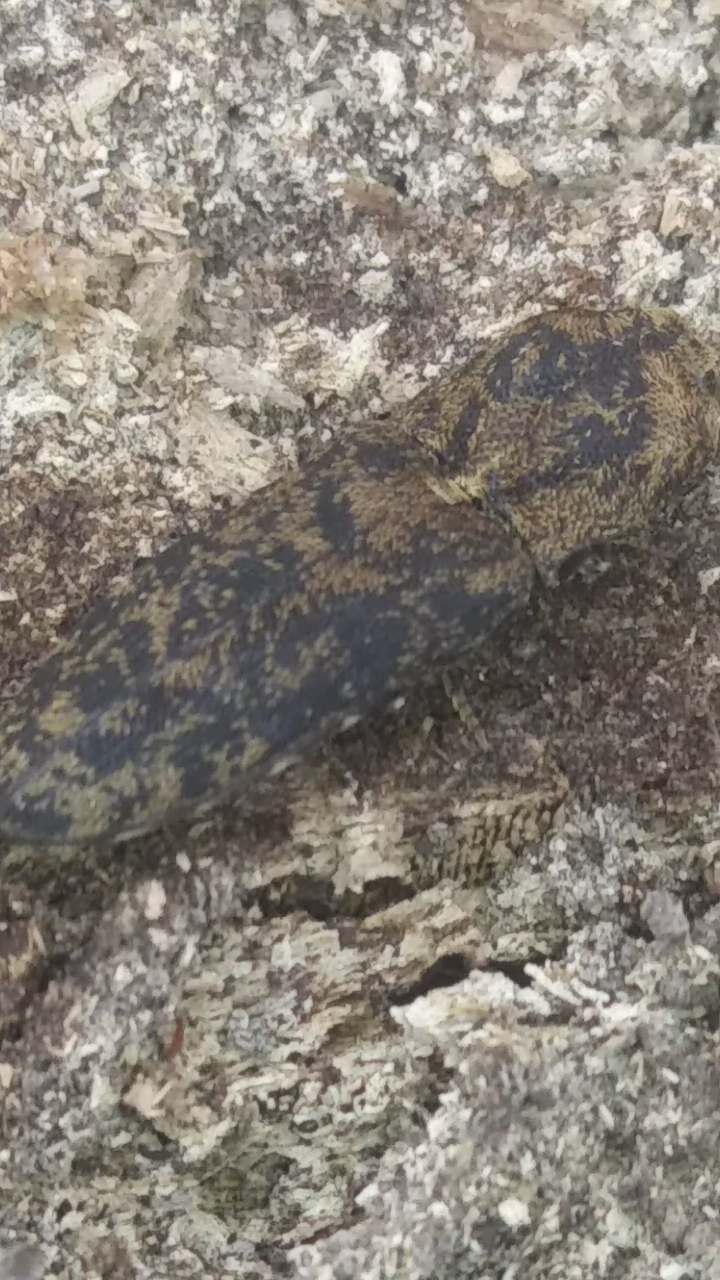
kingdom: Animalia
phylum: Arthropoda
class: Insecta
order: Coleoptera
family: Elateridae
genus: Lacon
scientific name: Lacon marmoratus
